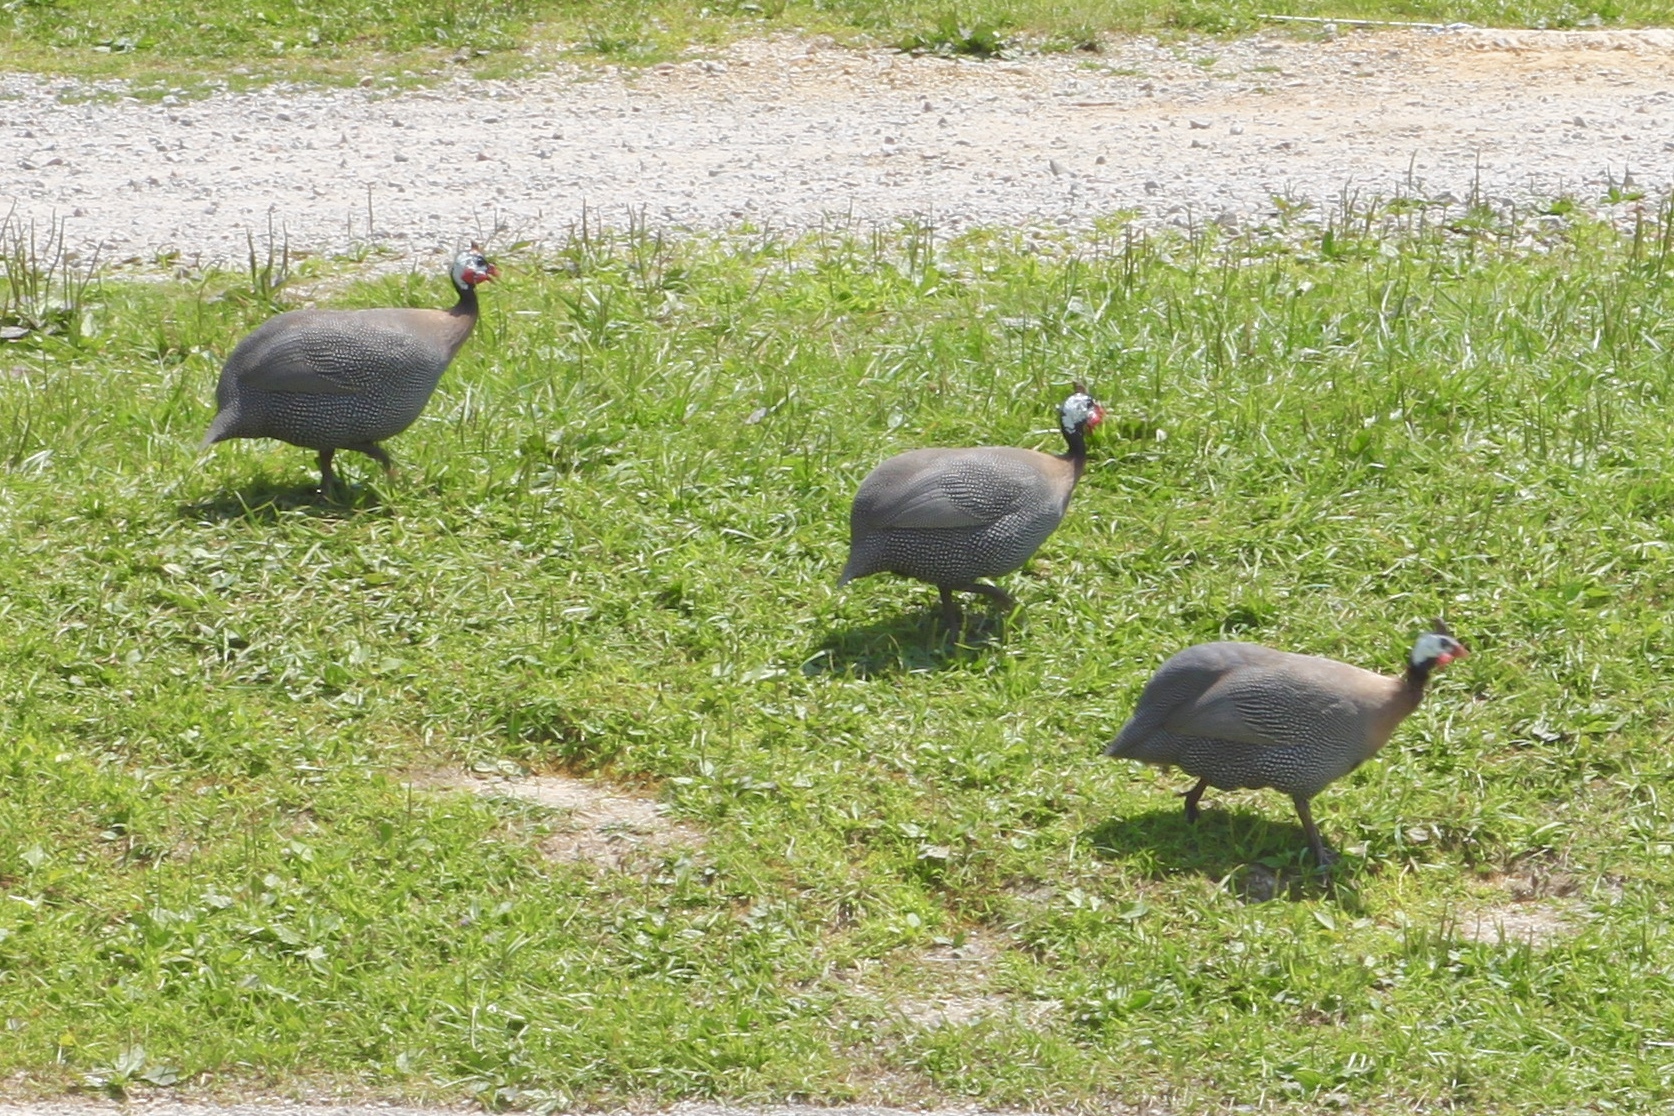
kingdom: Animalia
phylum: Chordata
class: Aves
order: Galliformes
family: Numididae
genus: Numida
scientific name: Numida meleagris
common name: Helmeted guineafowl
